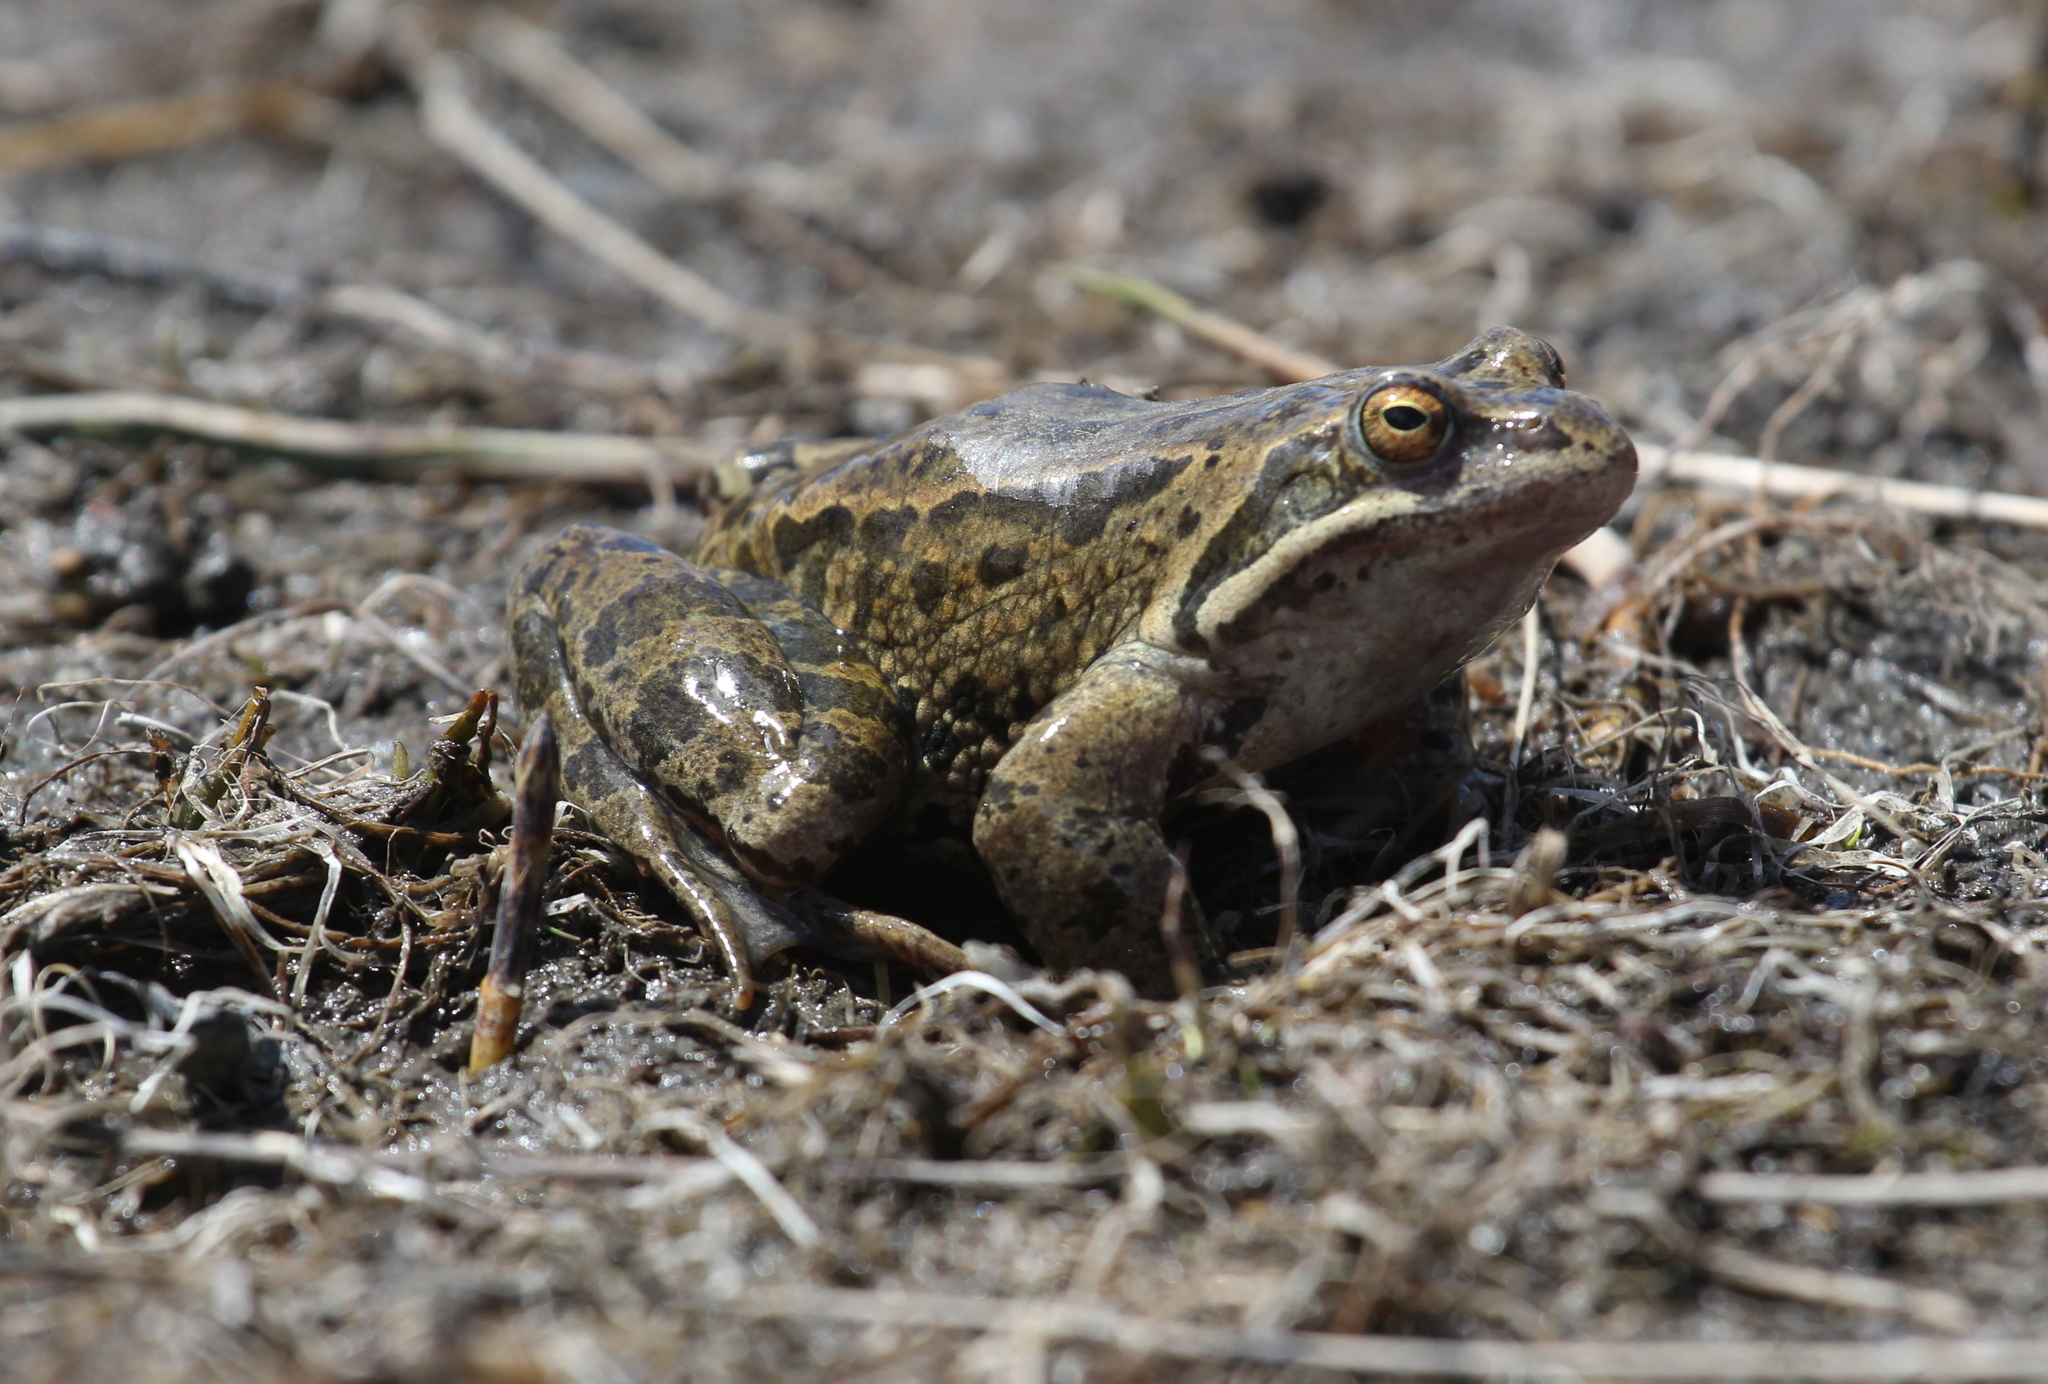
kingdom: Animalia
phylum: Chordata
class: Amphibia
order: Anura
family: Ranidae
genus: Rana
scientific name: Rana macrocnemis
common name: Banded frog
